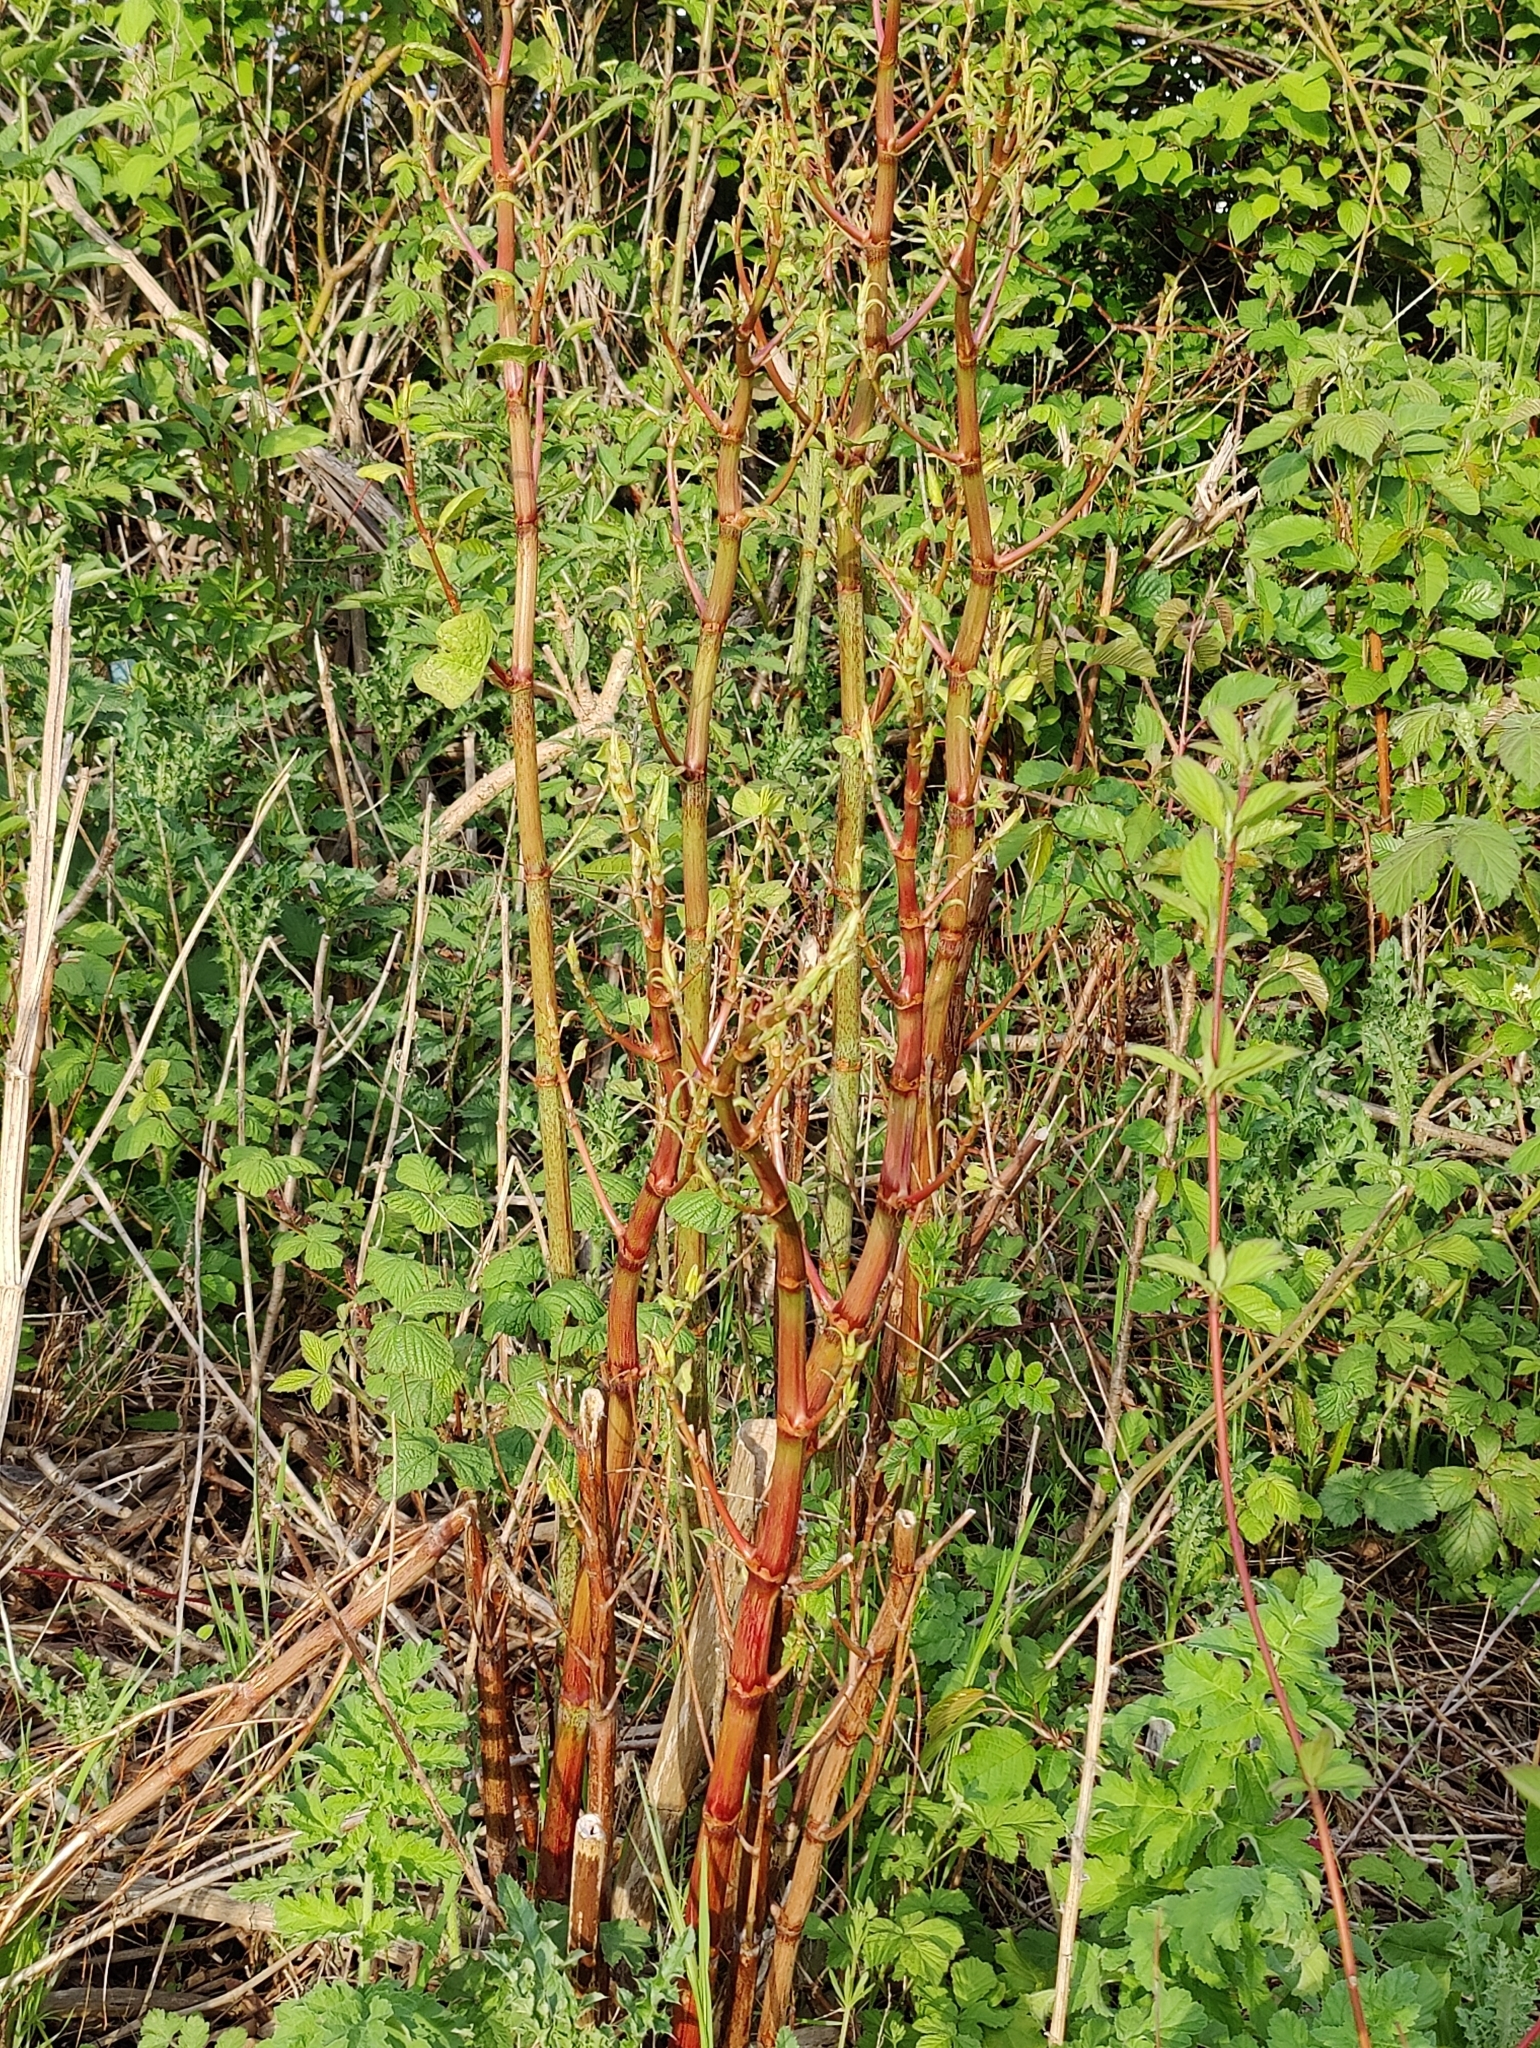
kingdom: Plantae
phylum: Tracheophyta
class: Magnoliopsida
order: Caryophyllales
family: Polygonaceae
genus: Reynoutria
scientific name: Reynoutria japonica
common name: Japanese knotweed
